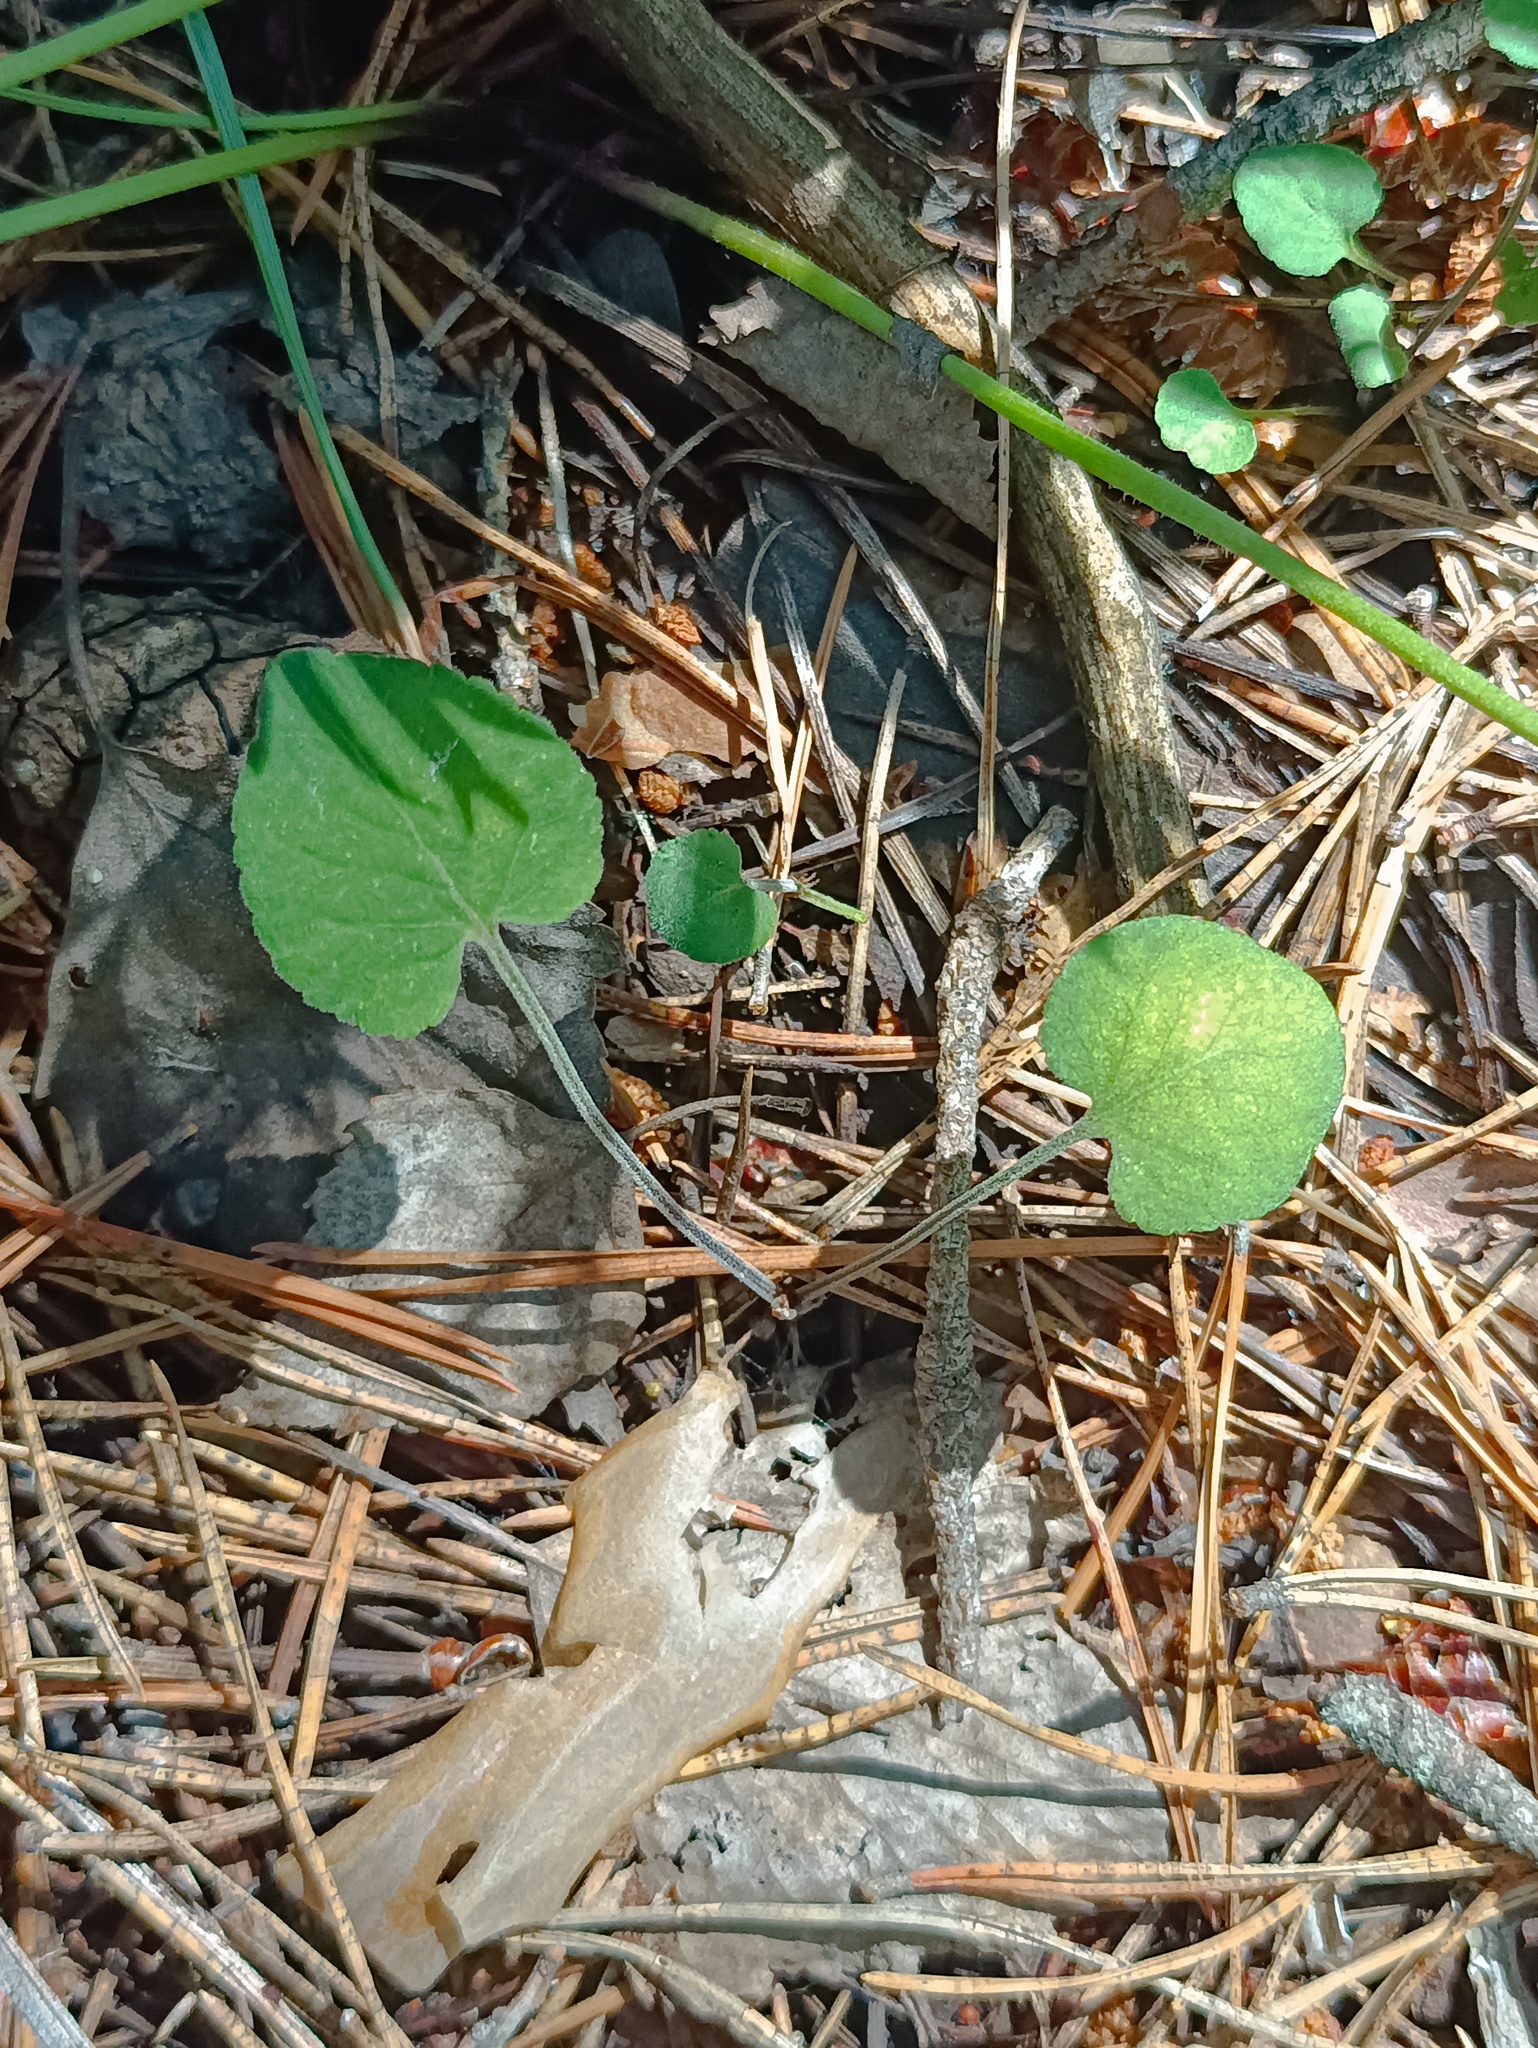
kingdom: Plantae
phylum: Tracheophyta
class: Magnoliopsida
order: Malpighiales
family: Violaceae
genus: Viola
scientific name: Viola rupestris
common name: Teesdale violet
